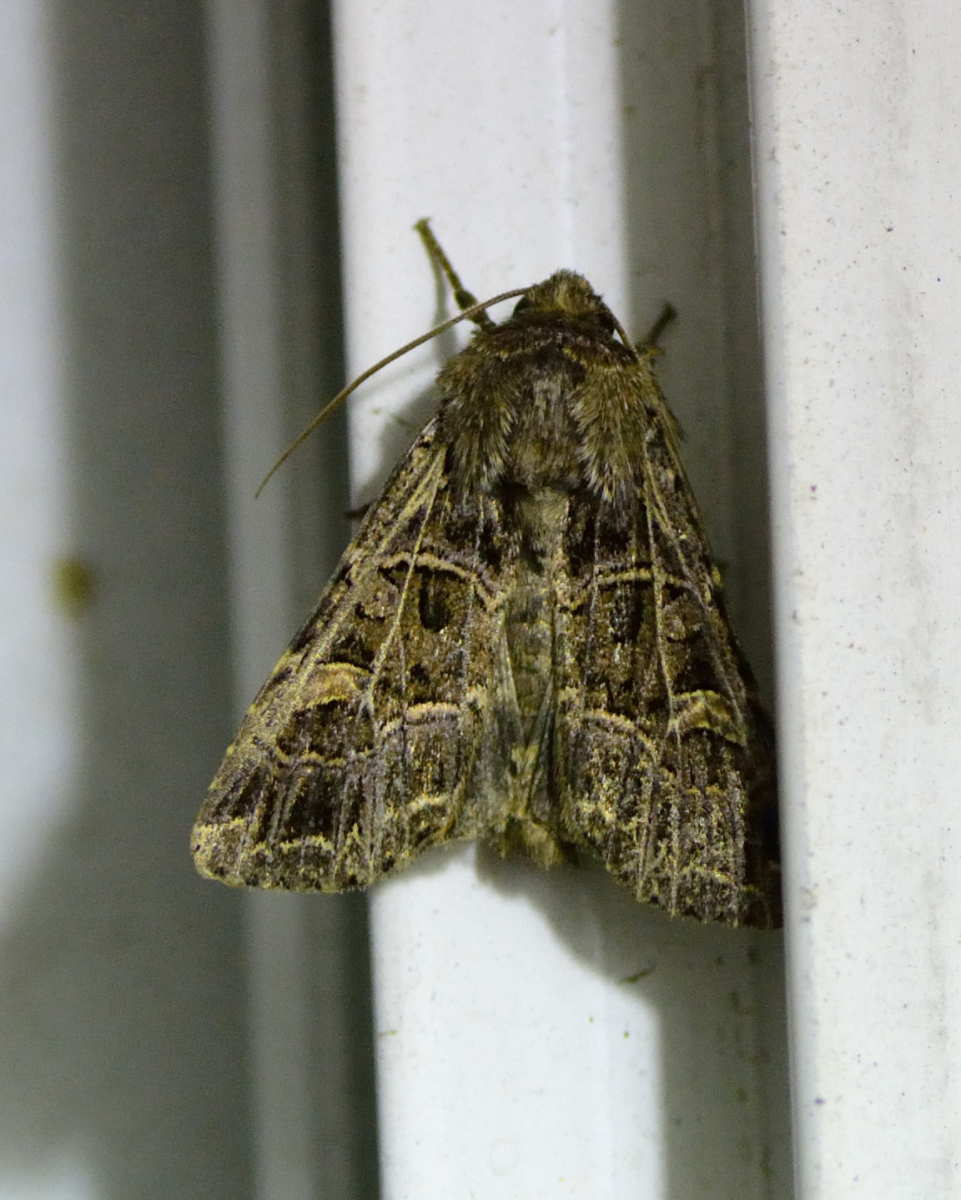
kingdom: Animalia
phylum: Arthropoda
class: Insecta
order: Lepidoptera
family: Noctuidae
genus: Sideridis
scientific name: Sideridis reticulata
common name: Bordered gothic
